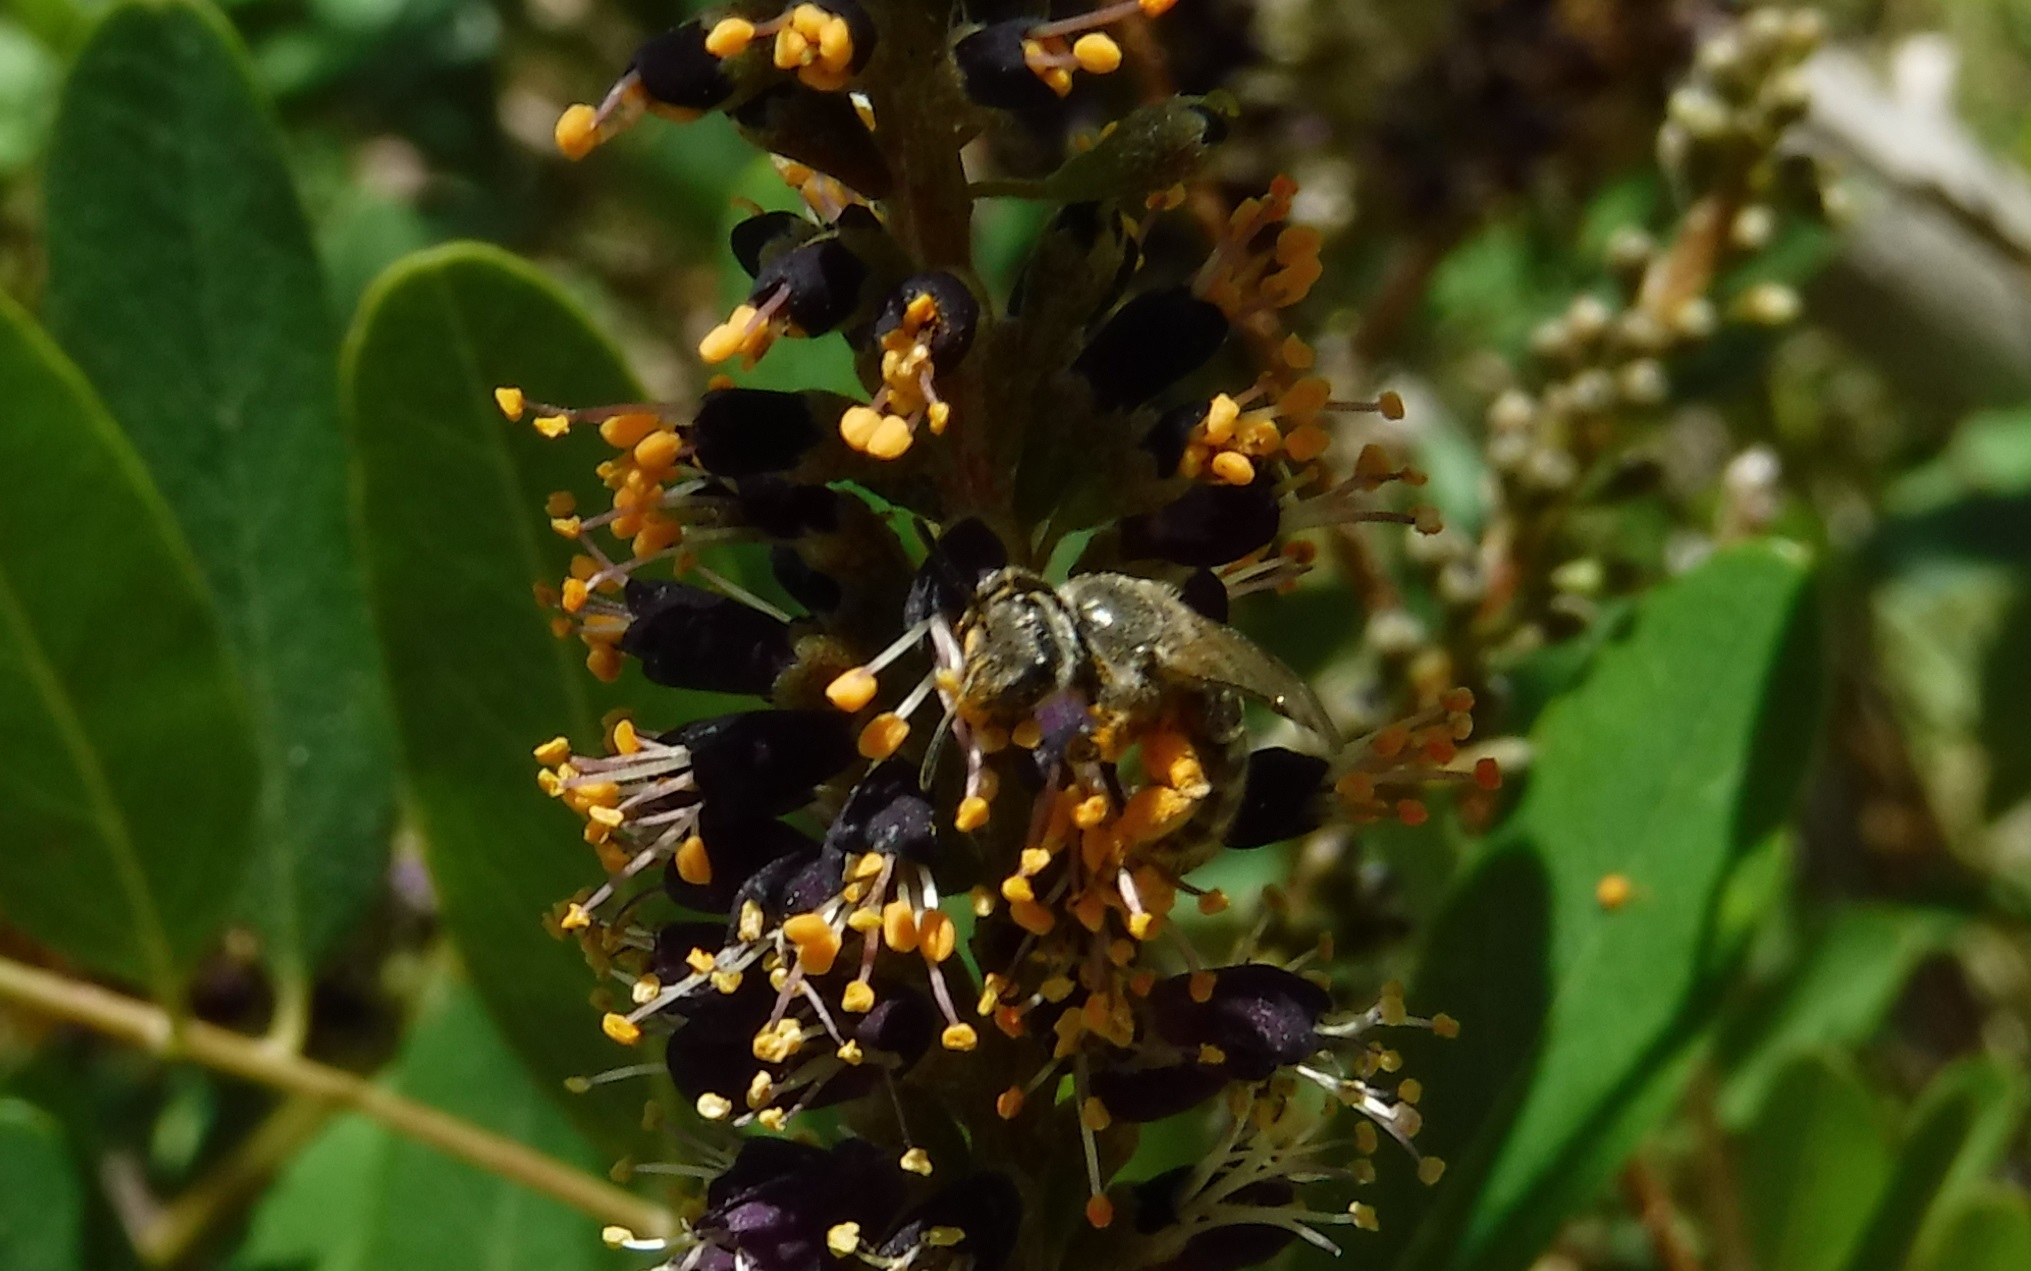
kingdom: Animalia
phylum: Arthropoda
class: Insecta
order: Hymenoptera
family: Halictidae
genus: Lasioglossum
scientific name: Lasioglossum
